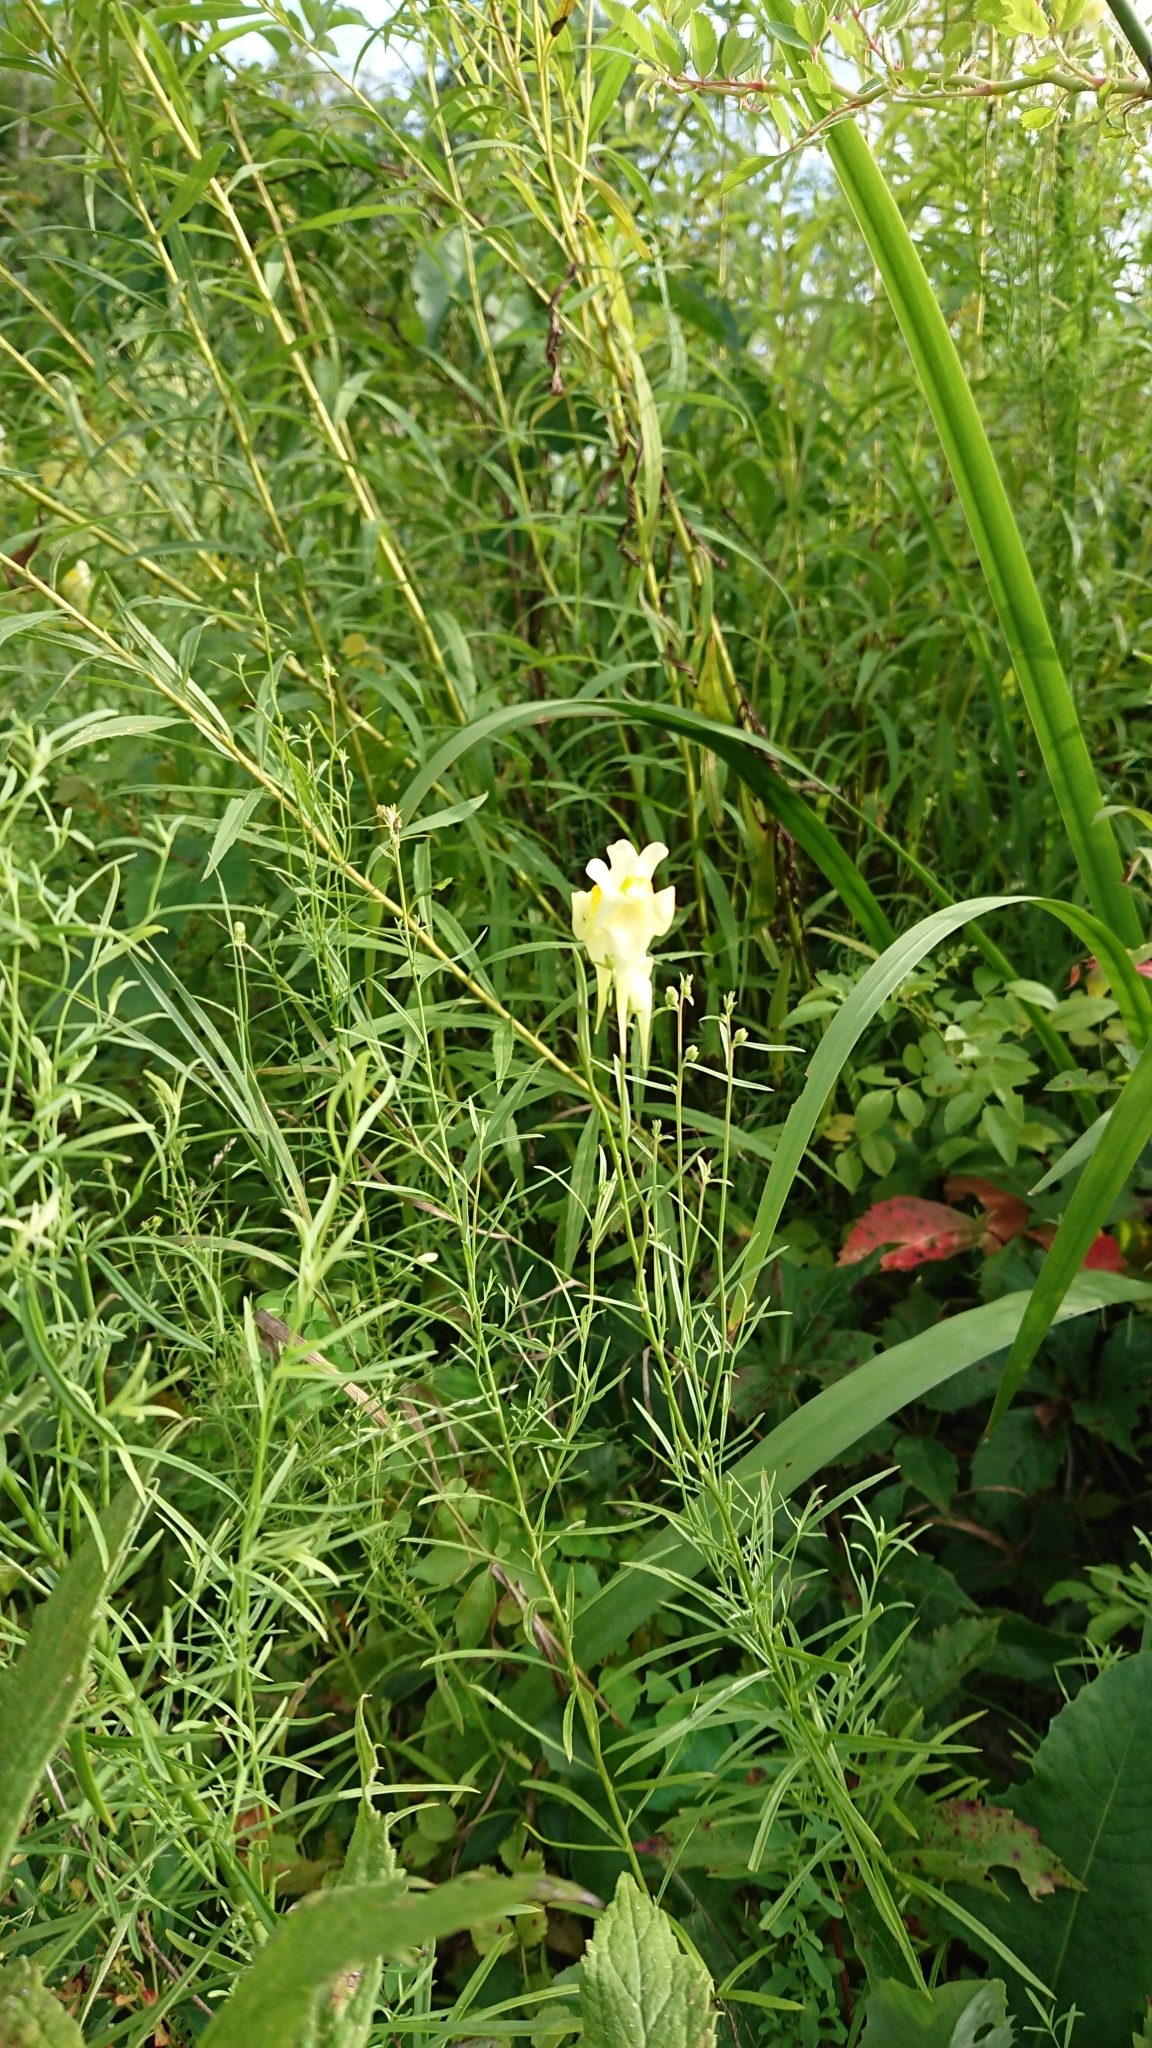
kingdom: Plantae
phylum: Tracheophyta
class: Magnoliopsida
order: Lamiales
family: Plantaginaceae
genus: Linaria
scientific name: Linaria vulgaris
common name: Butter and eggs
